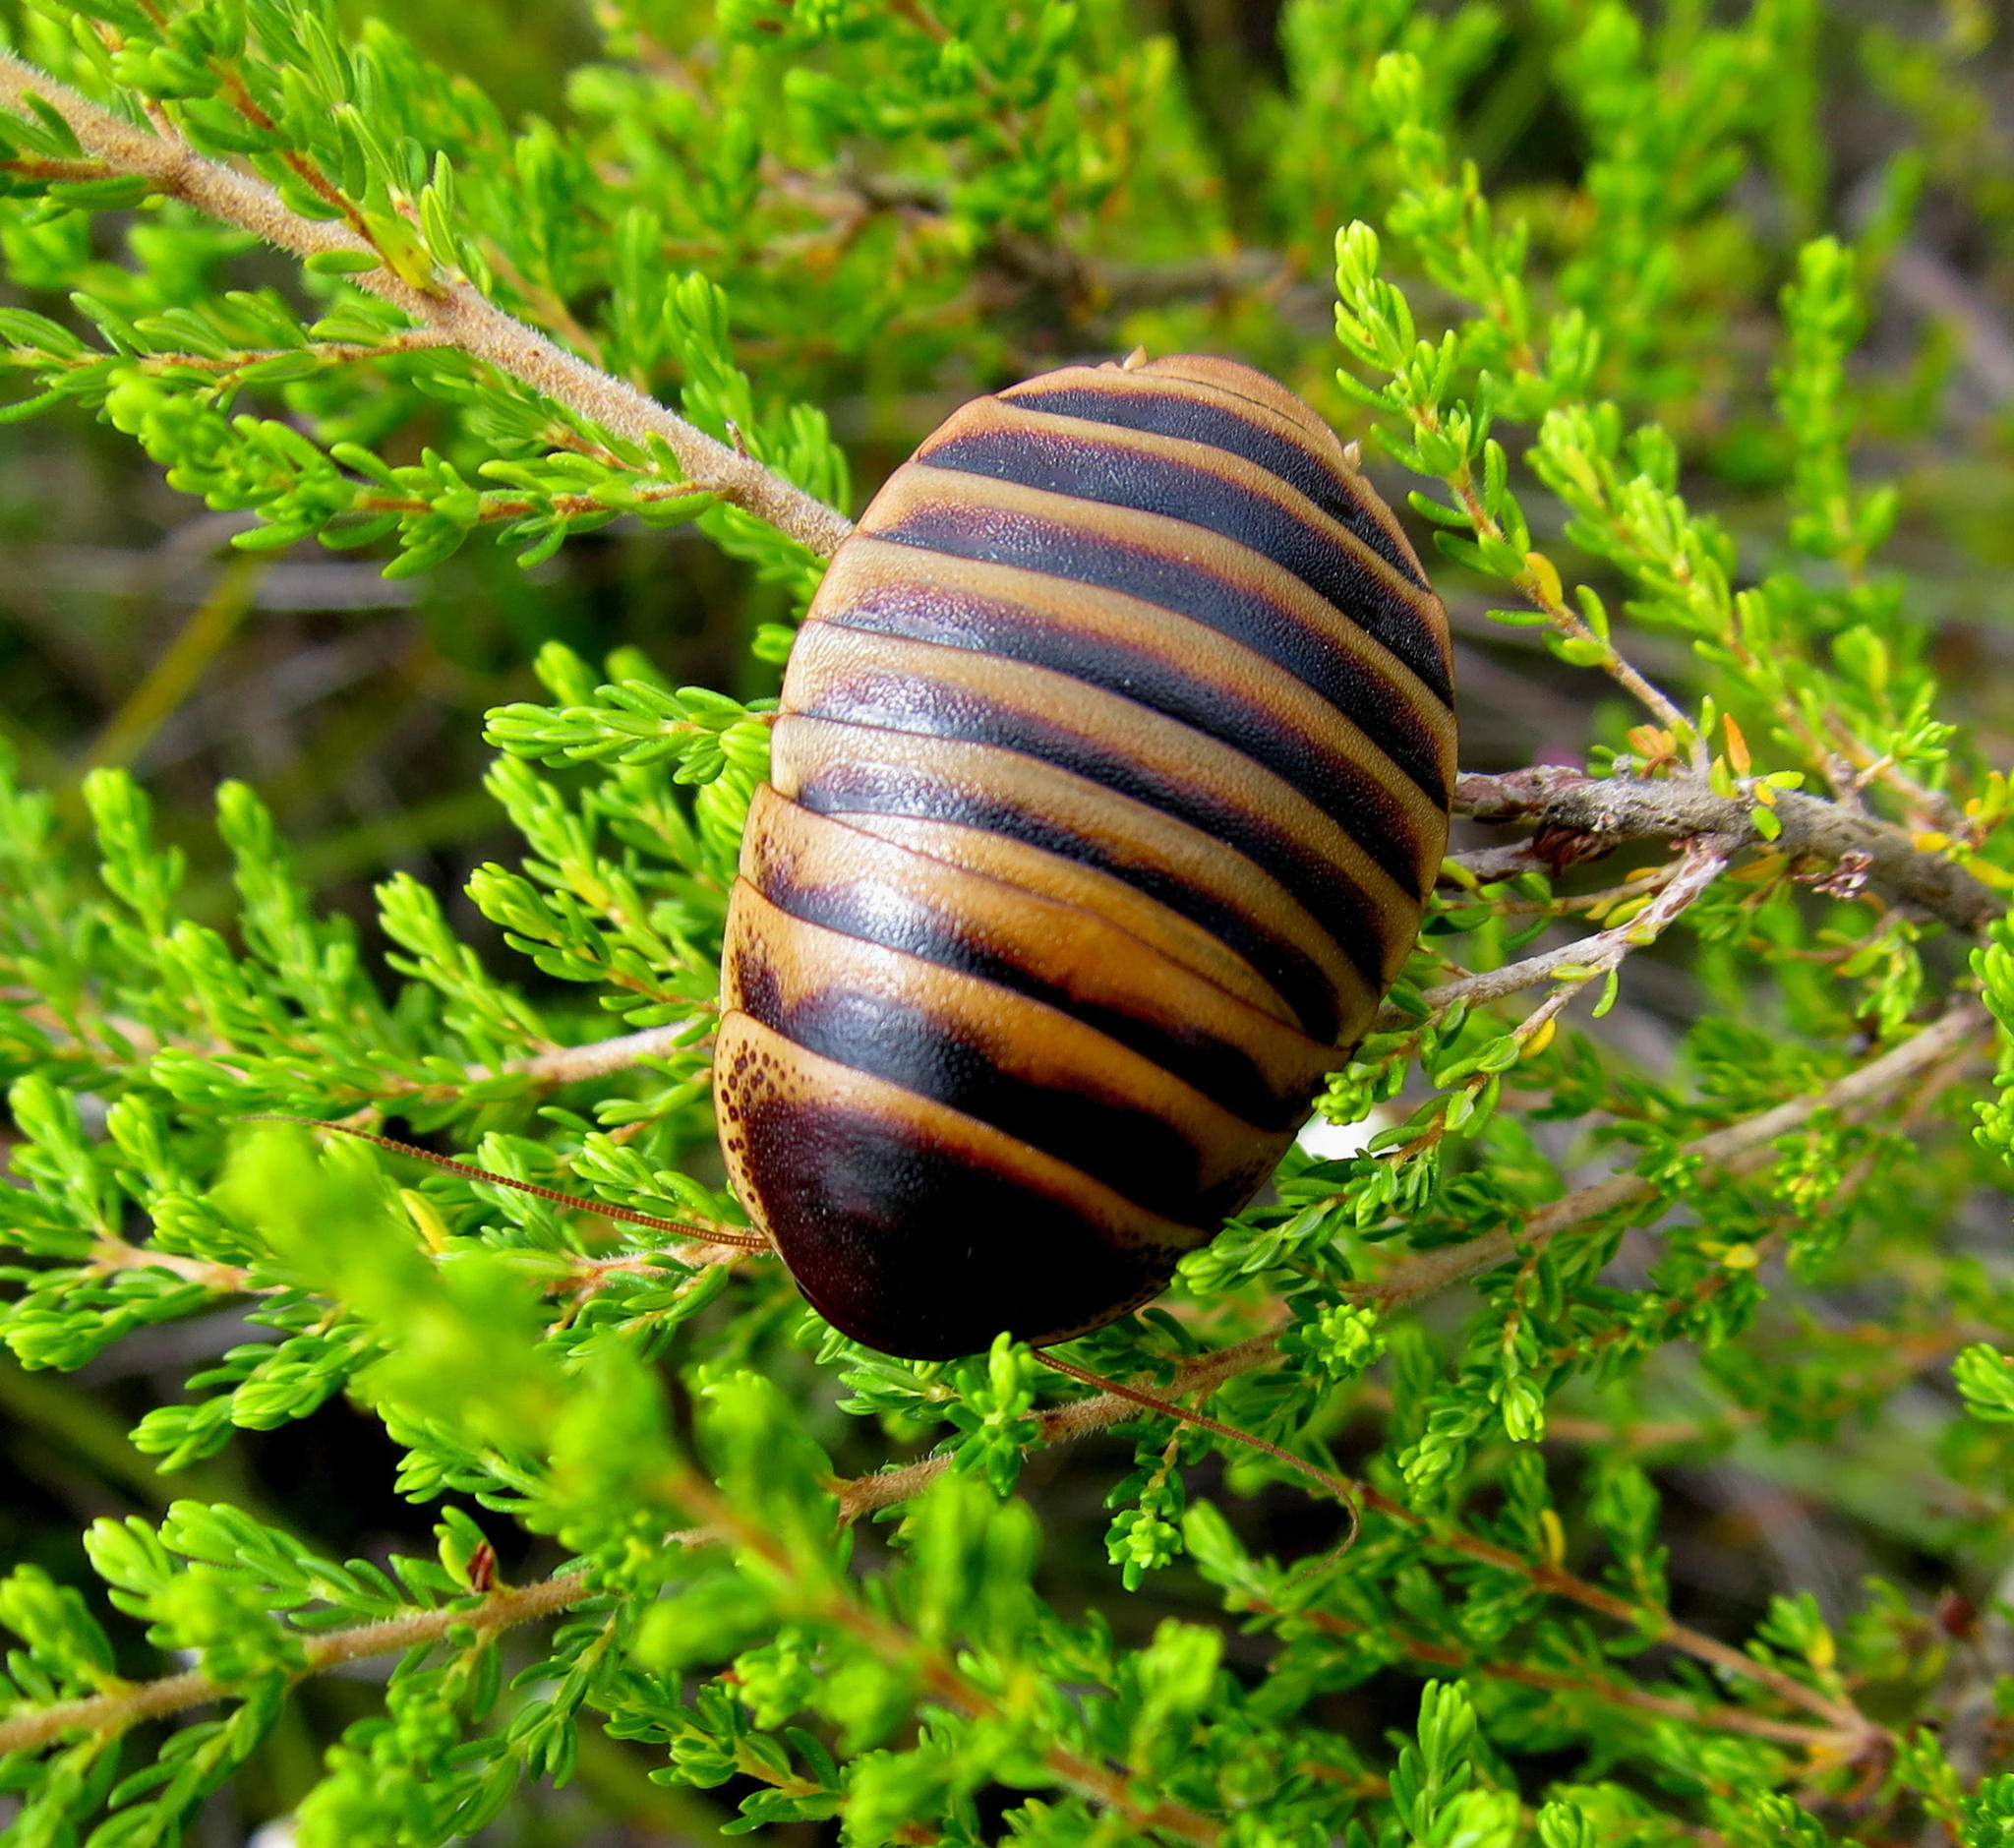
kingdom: Animalia
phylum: Arthropoda
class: Insecta
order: Blattodea
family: Blaberidae
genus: Aptera
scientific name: Aptera fusca
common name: Cape mountain cockroach
